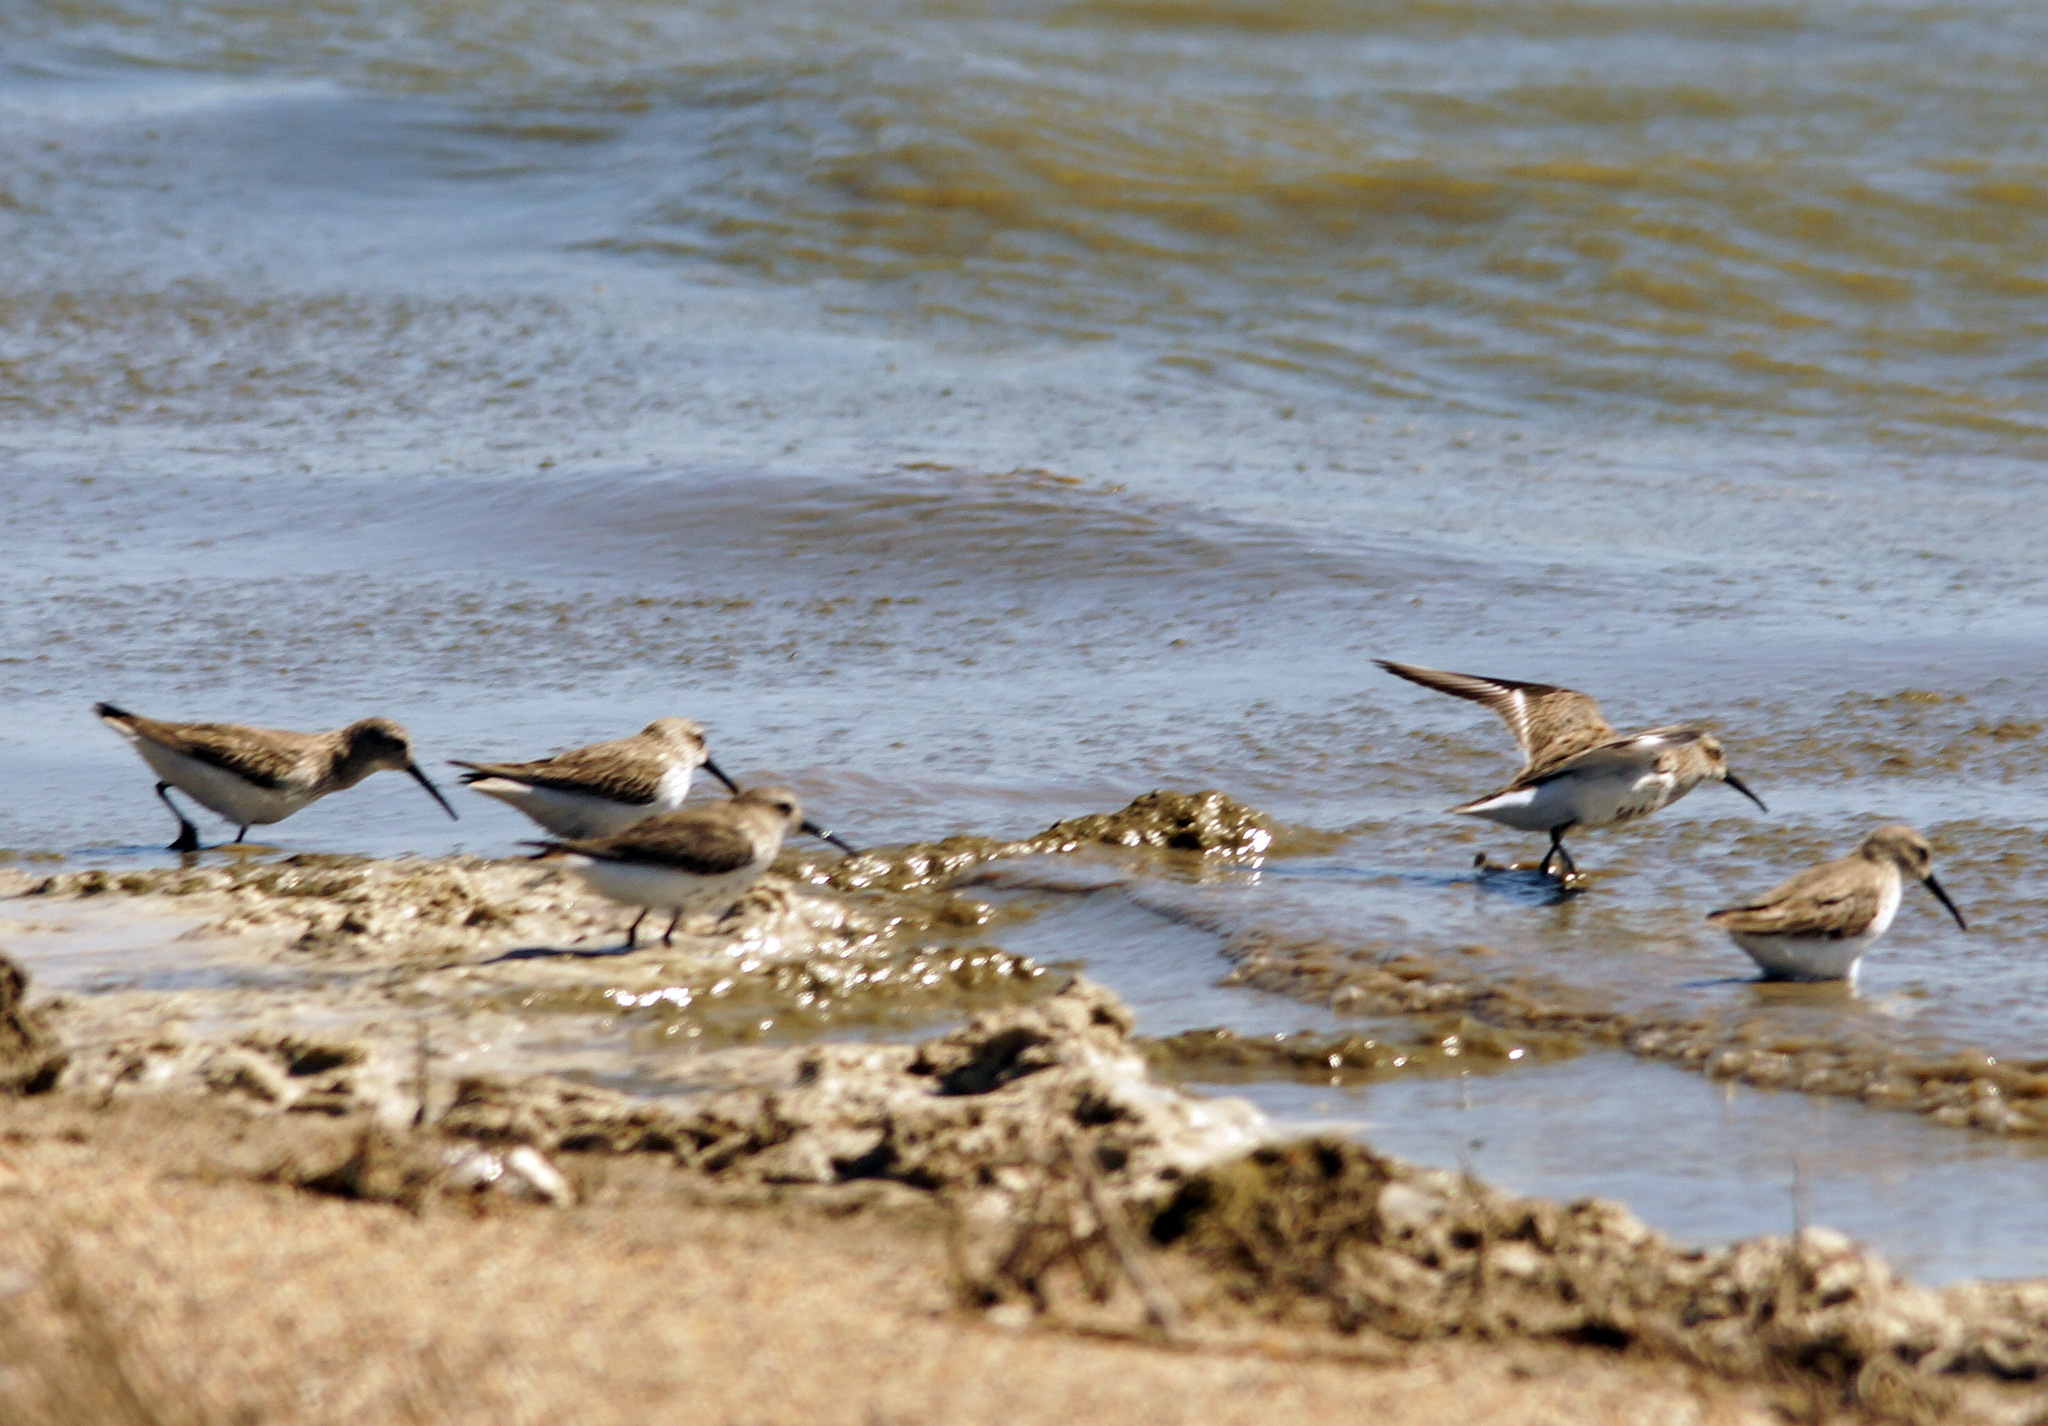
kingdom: Animalia
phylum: Chordata
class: Aves
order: Charadriiformes
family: Scolopacidae
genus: Calidris
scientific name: Calidris alpina
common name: Dunlin
